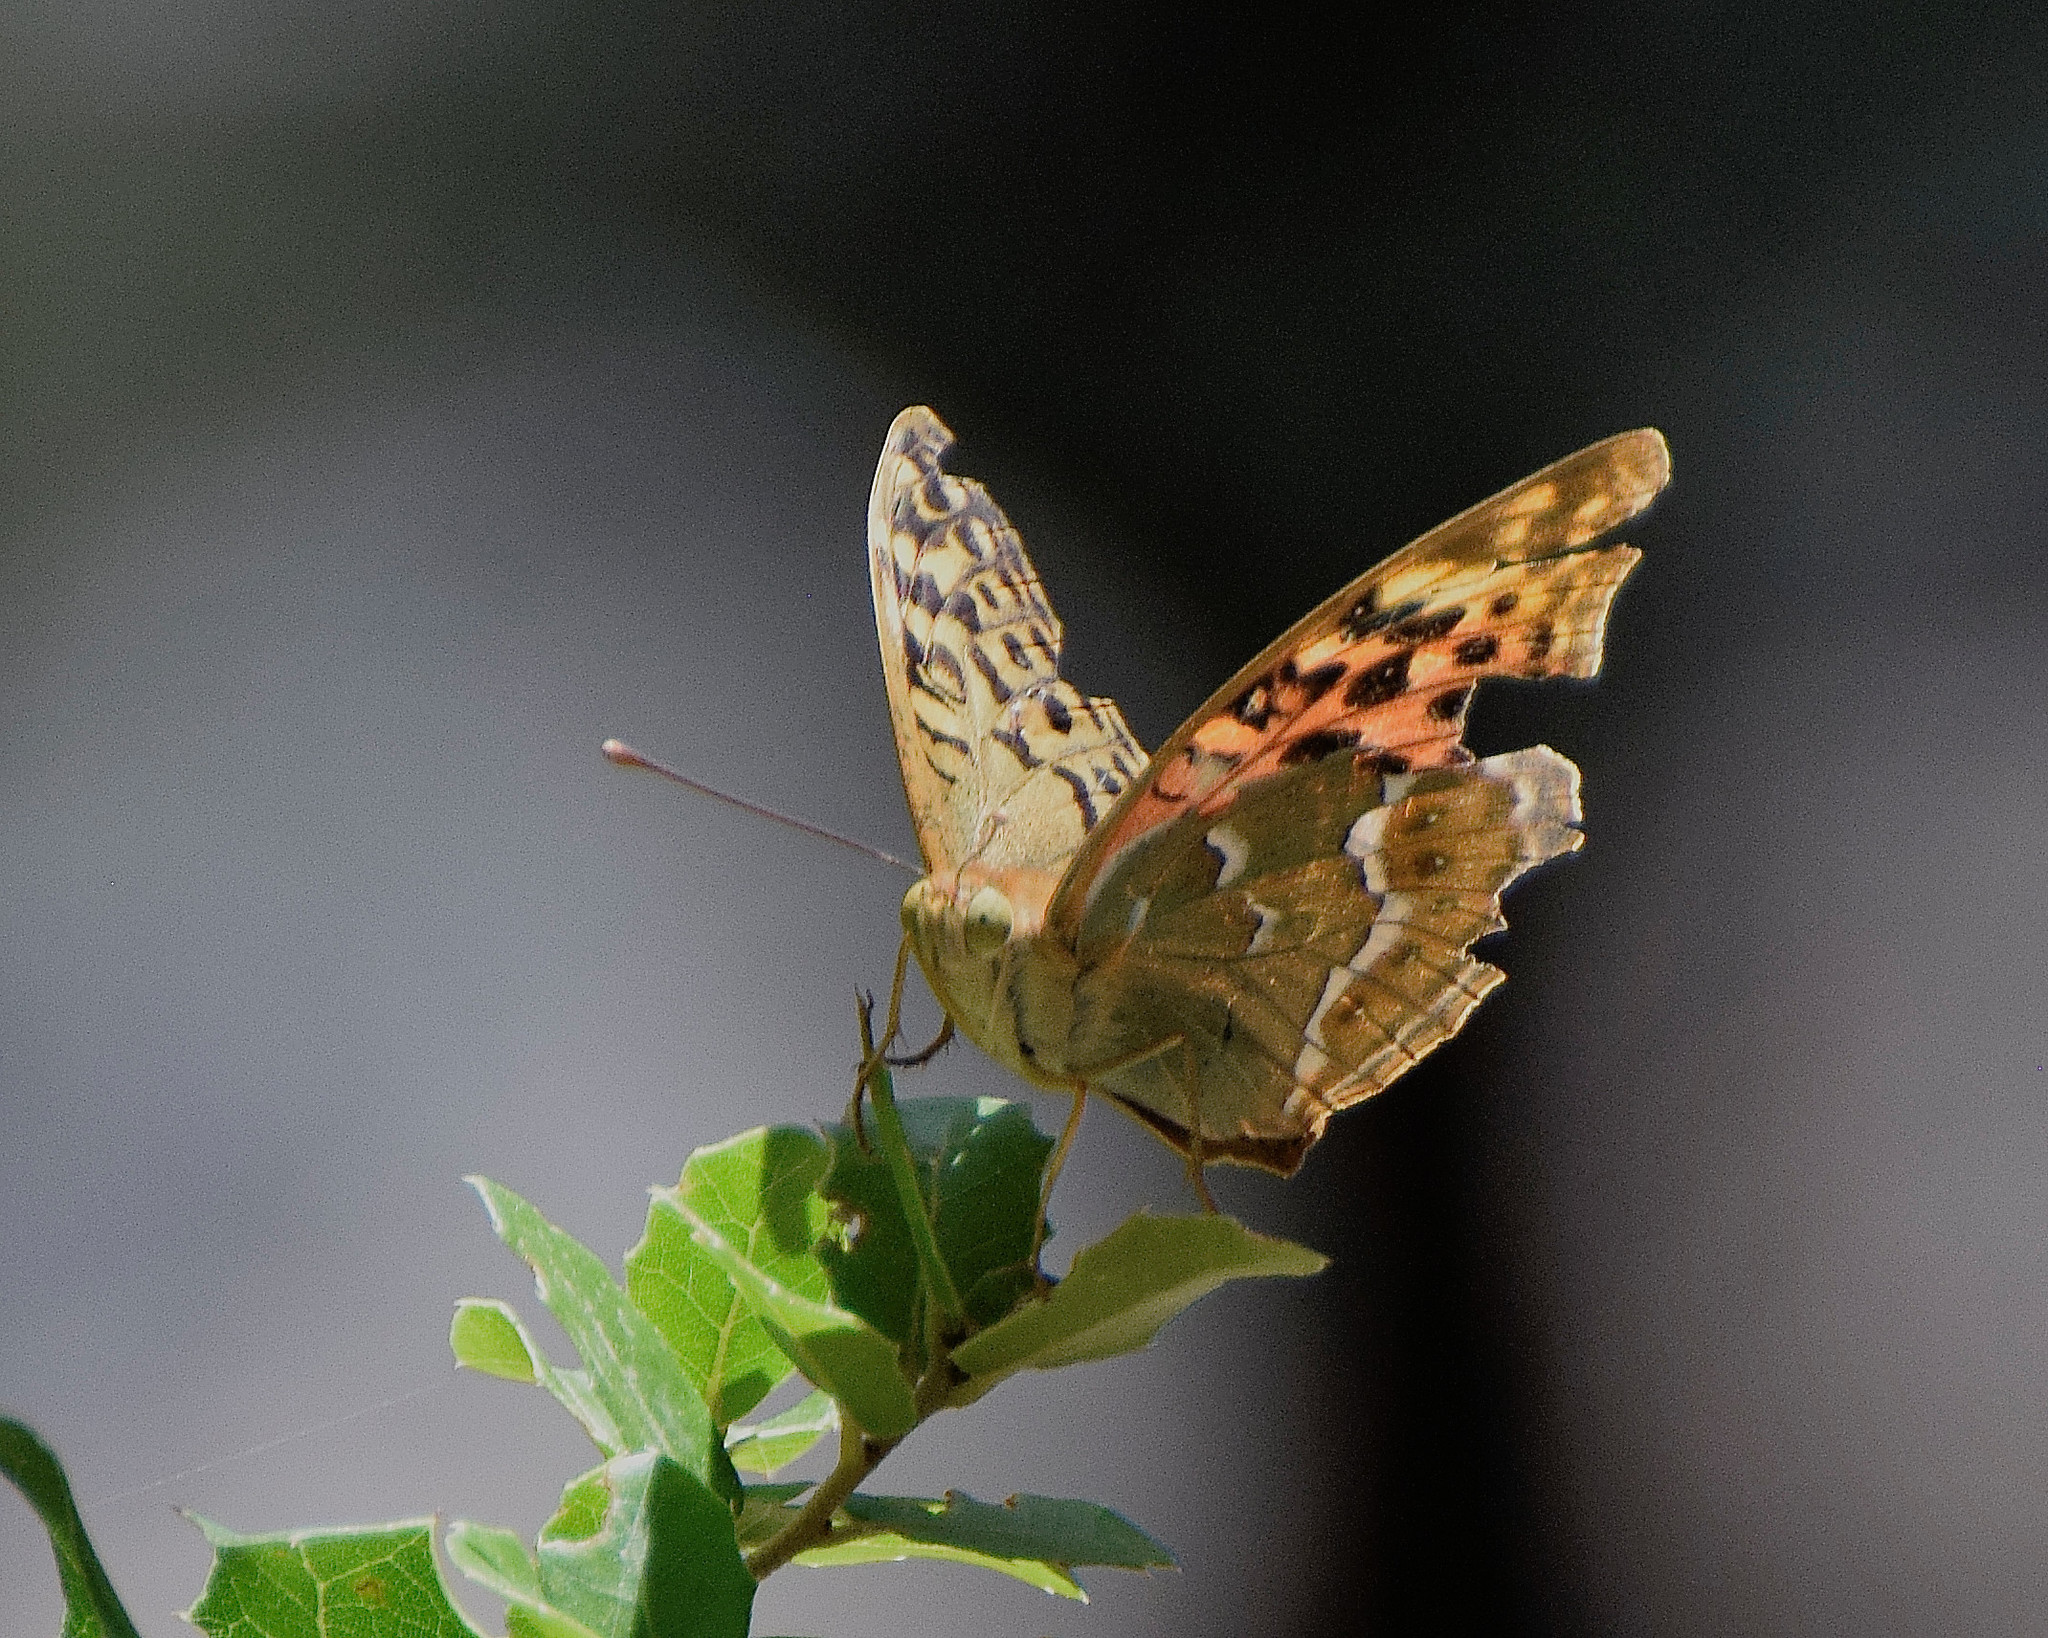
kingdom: Animalia
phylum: Arthropoda
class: Insecta
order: Lepidoptera
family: Nymphalidae
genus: Damora
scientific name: Damora pandora
